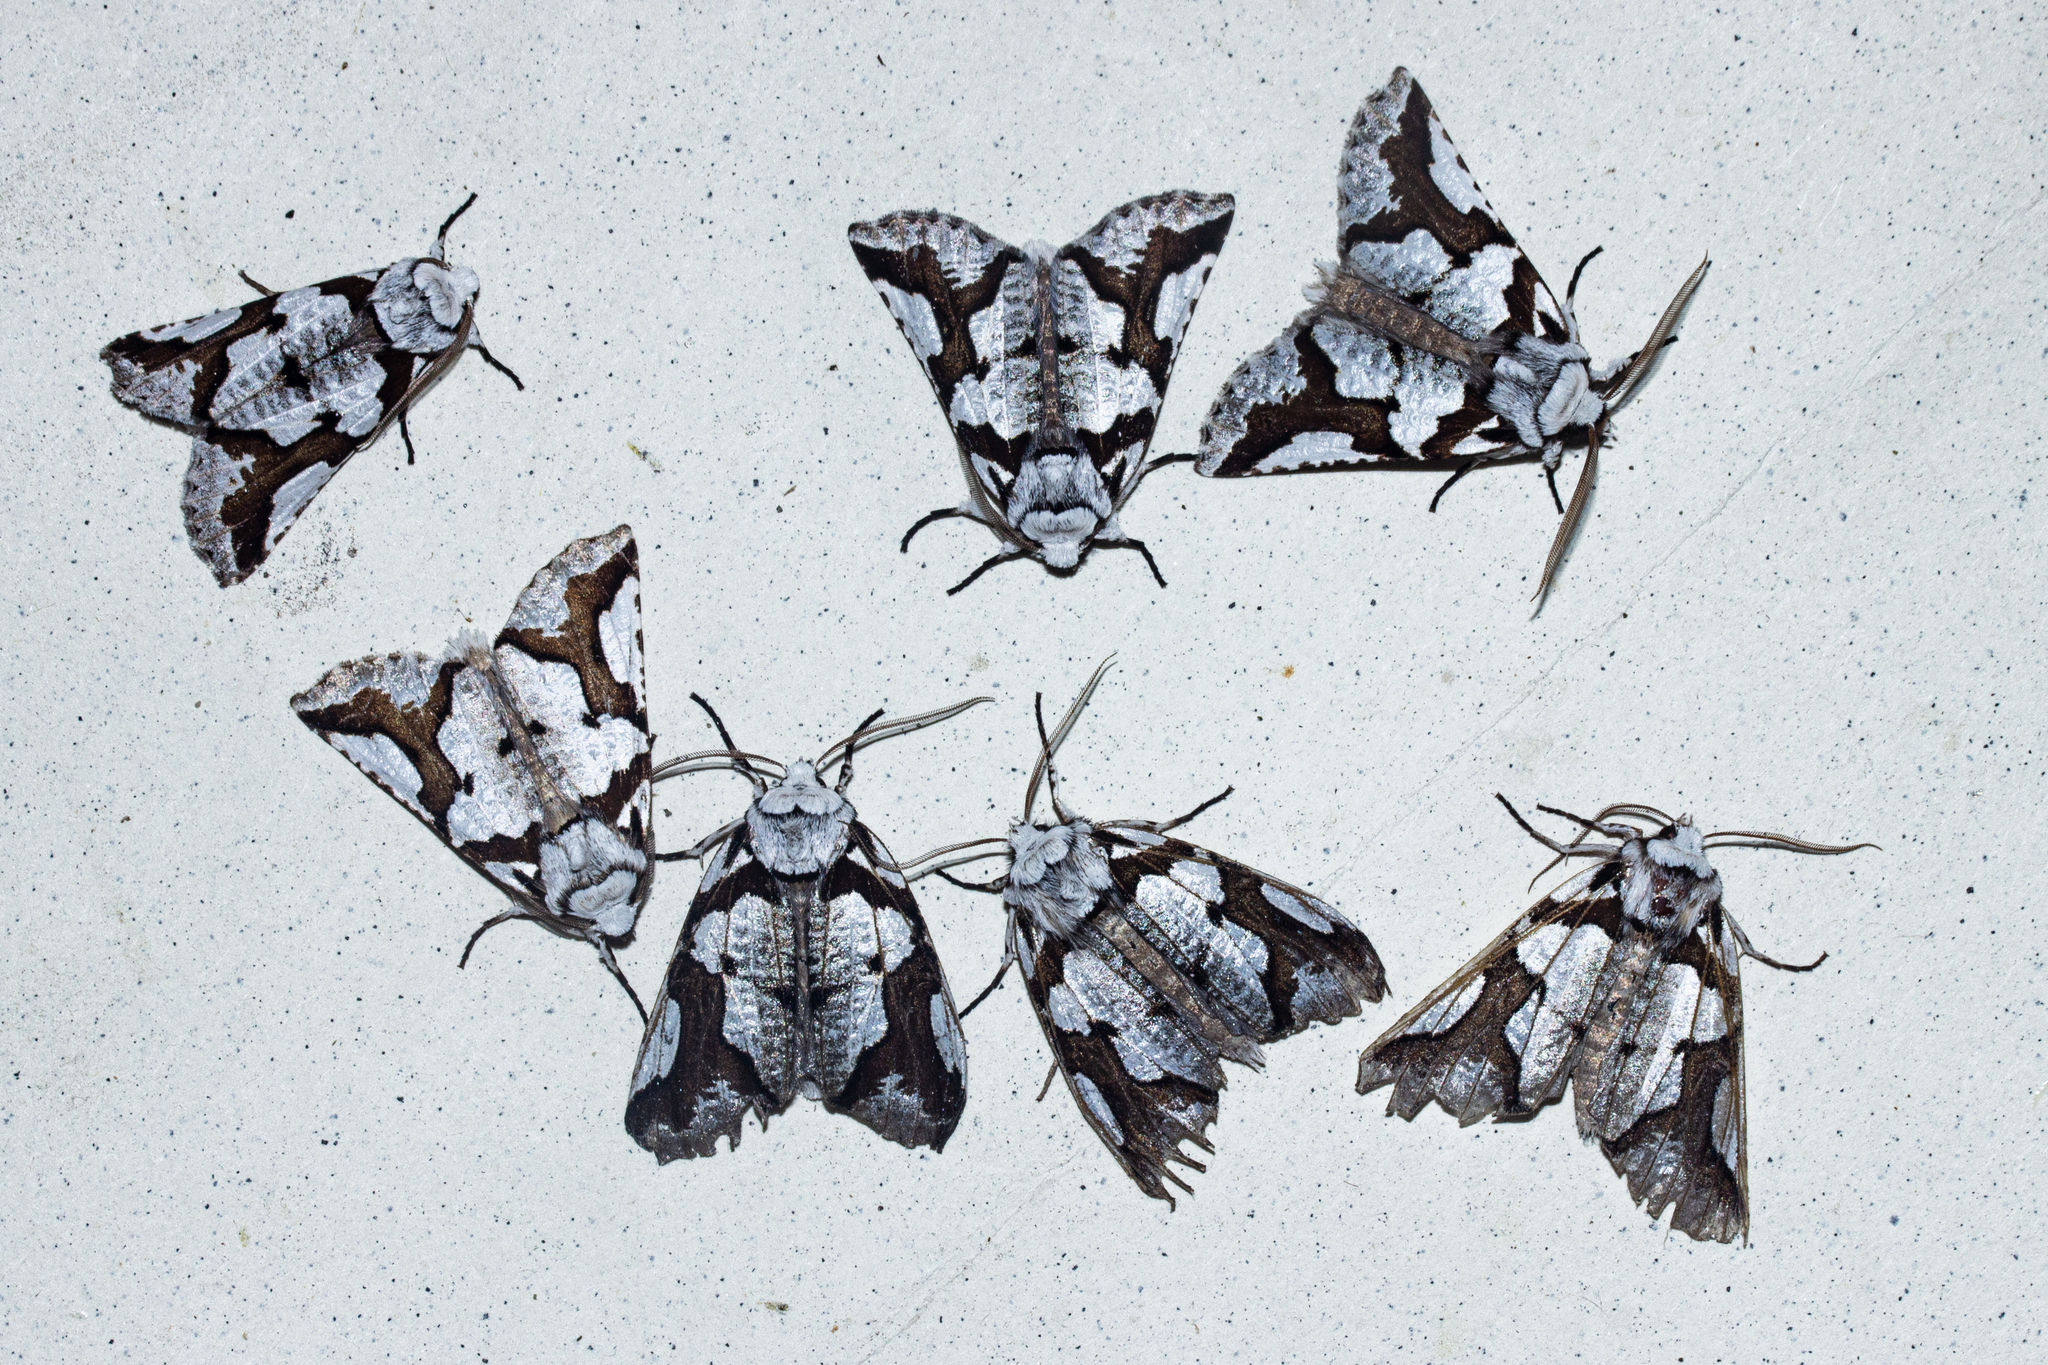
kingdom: Animalia
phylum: Arthropoda
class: Insecta
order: Lepidoptera
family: Geometridae
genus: Declana
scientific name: Declana
